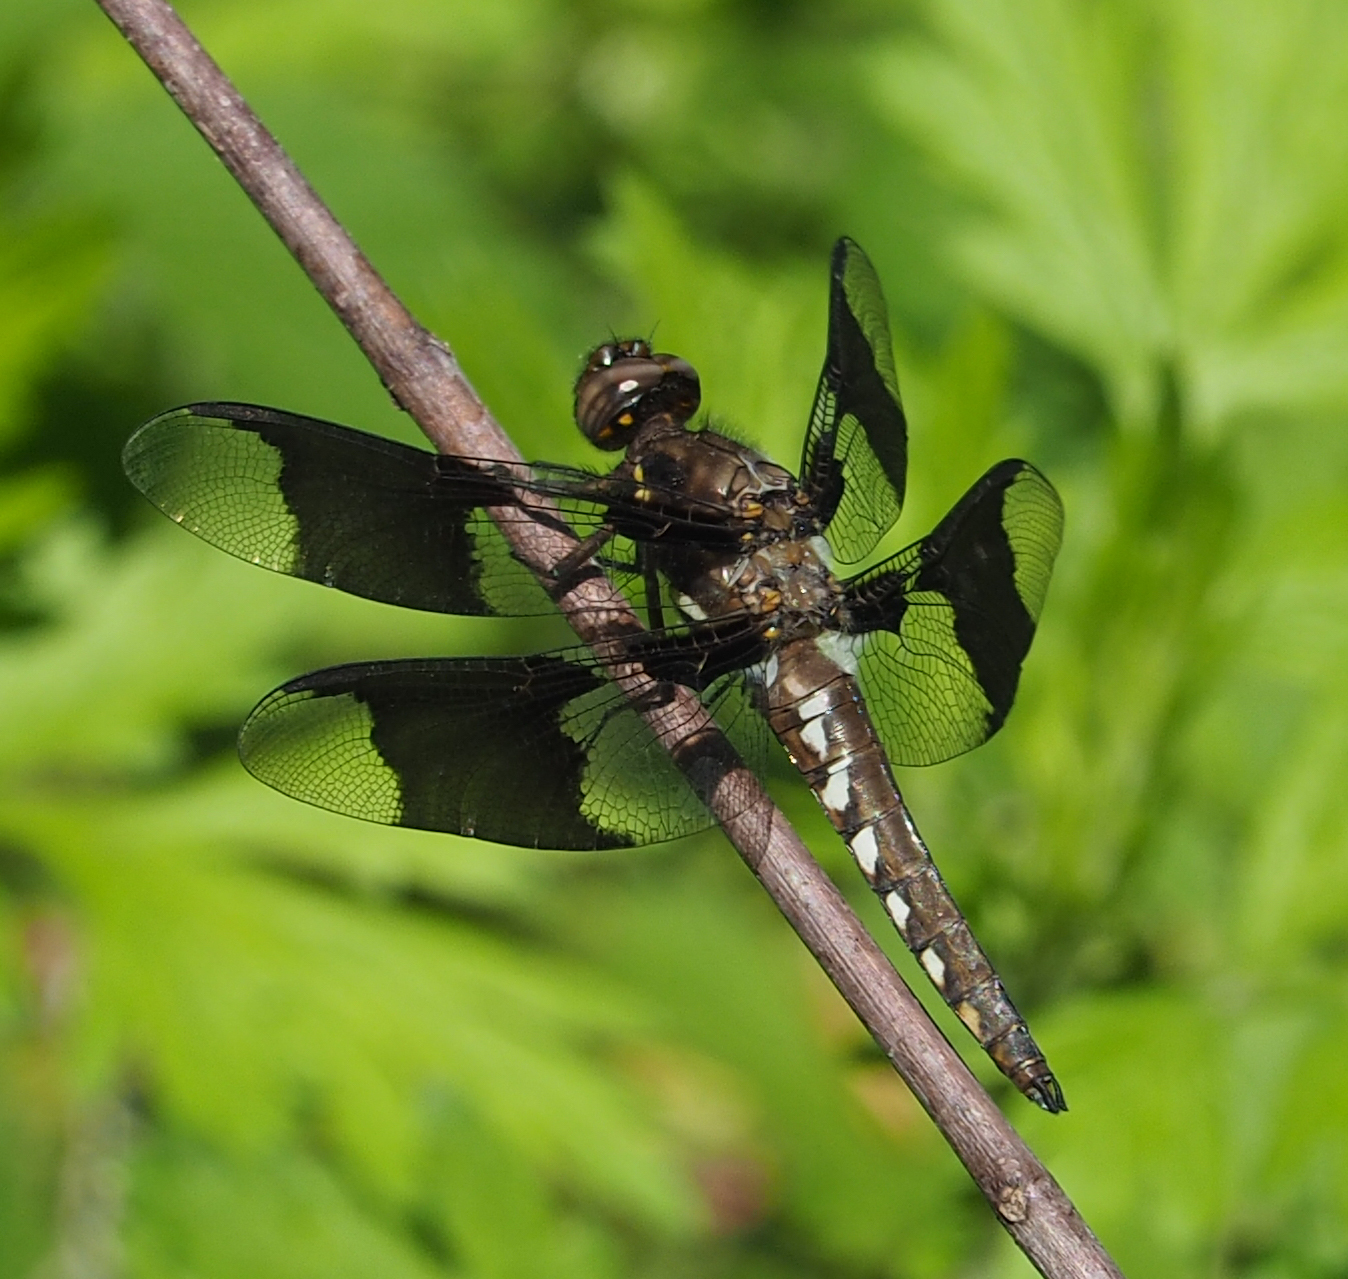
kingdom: Animalia
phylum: Arthropoda
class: Insecta
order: Odonata
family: Libellulidae
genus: Plathemis
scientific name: Plathemis lydia
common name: Common whitetail
